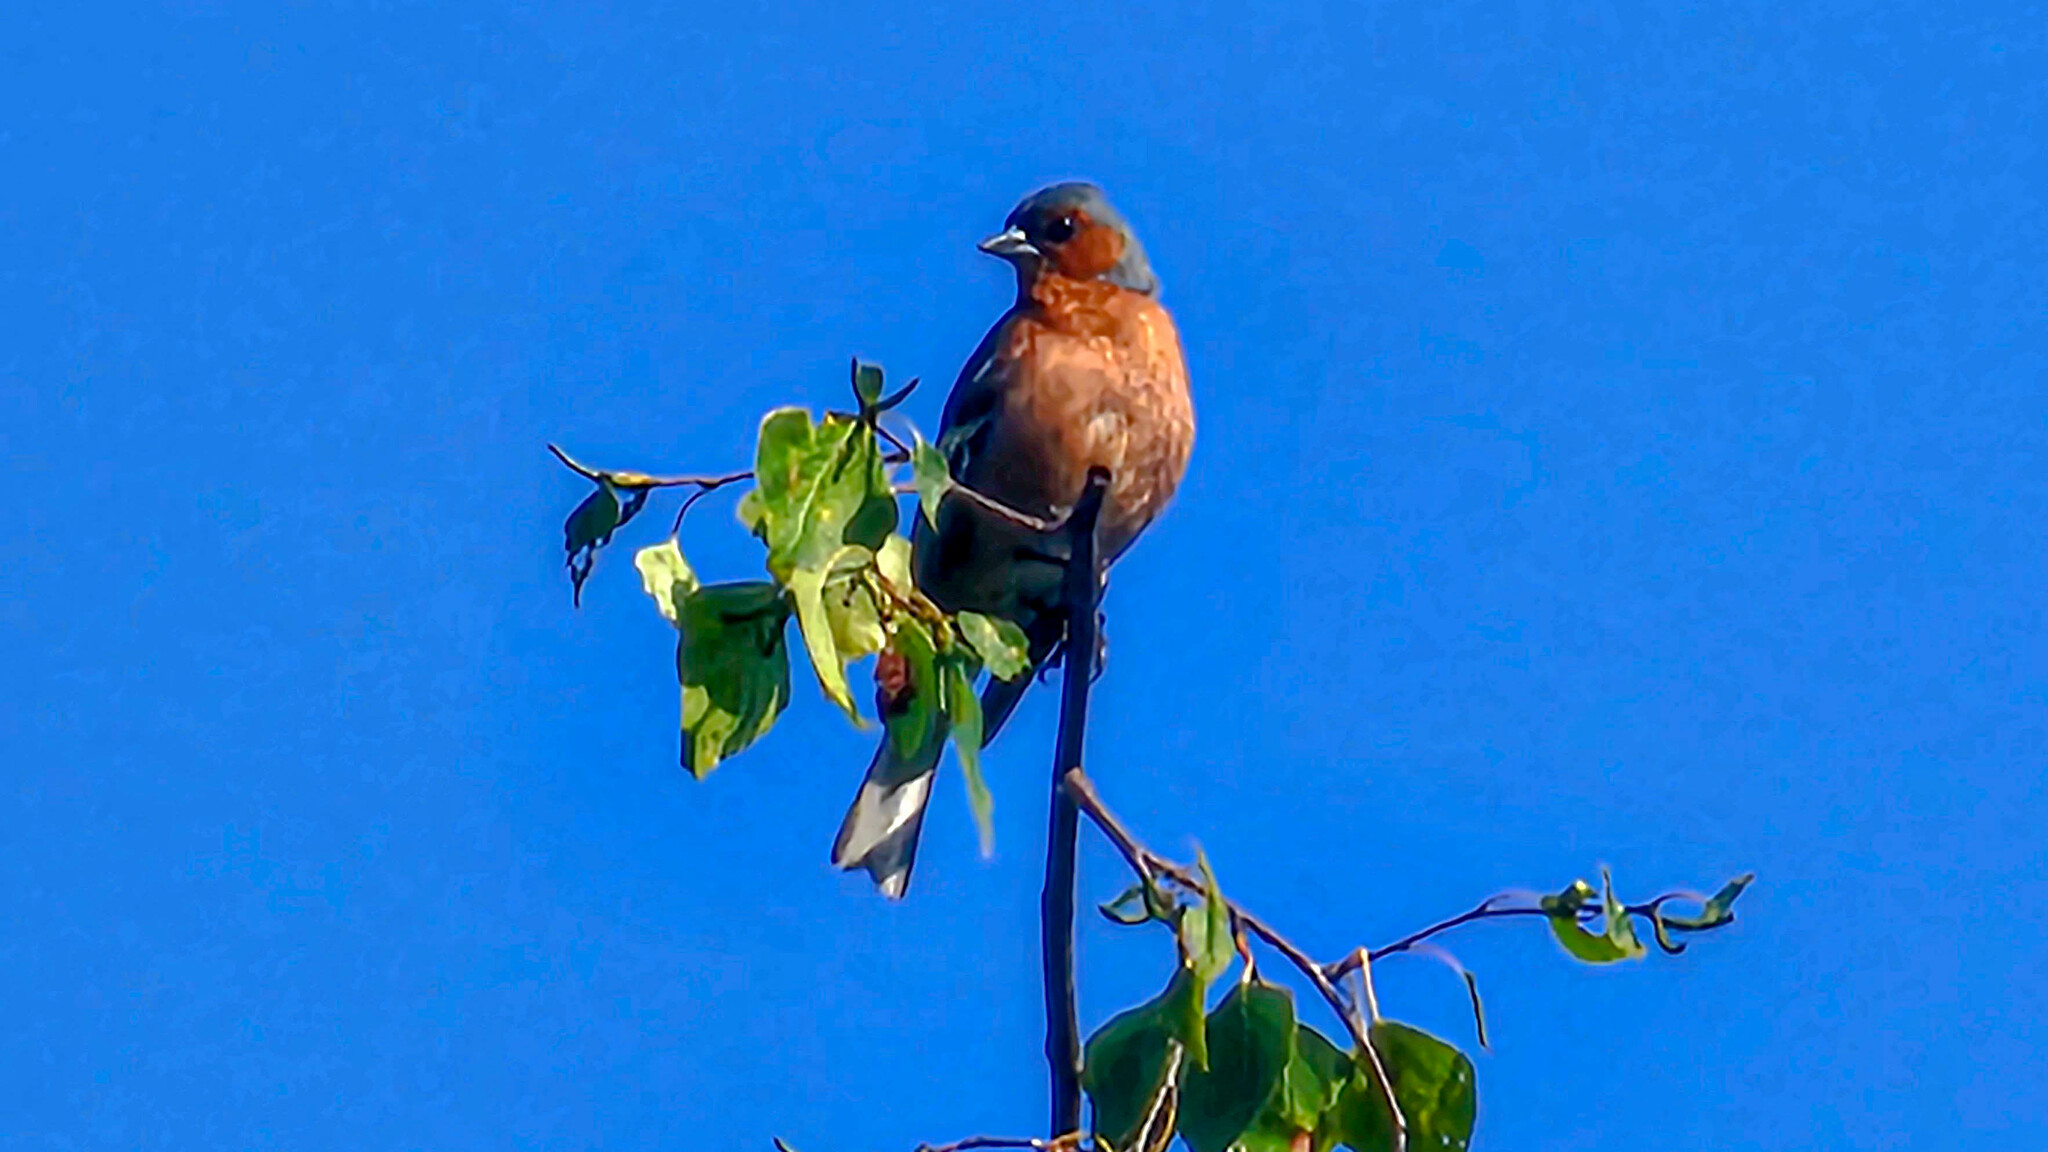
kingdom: Animalia
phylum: Chordata
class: Aves
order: Passeriformes
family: Fringillidae
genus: Fringilla
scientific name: Fringilla coelebs
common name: Common chaffinch
